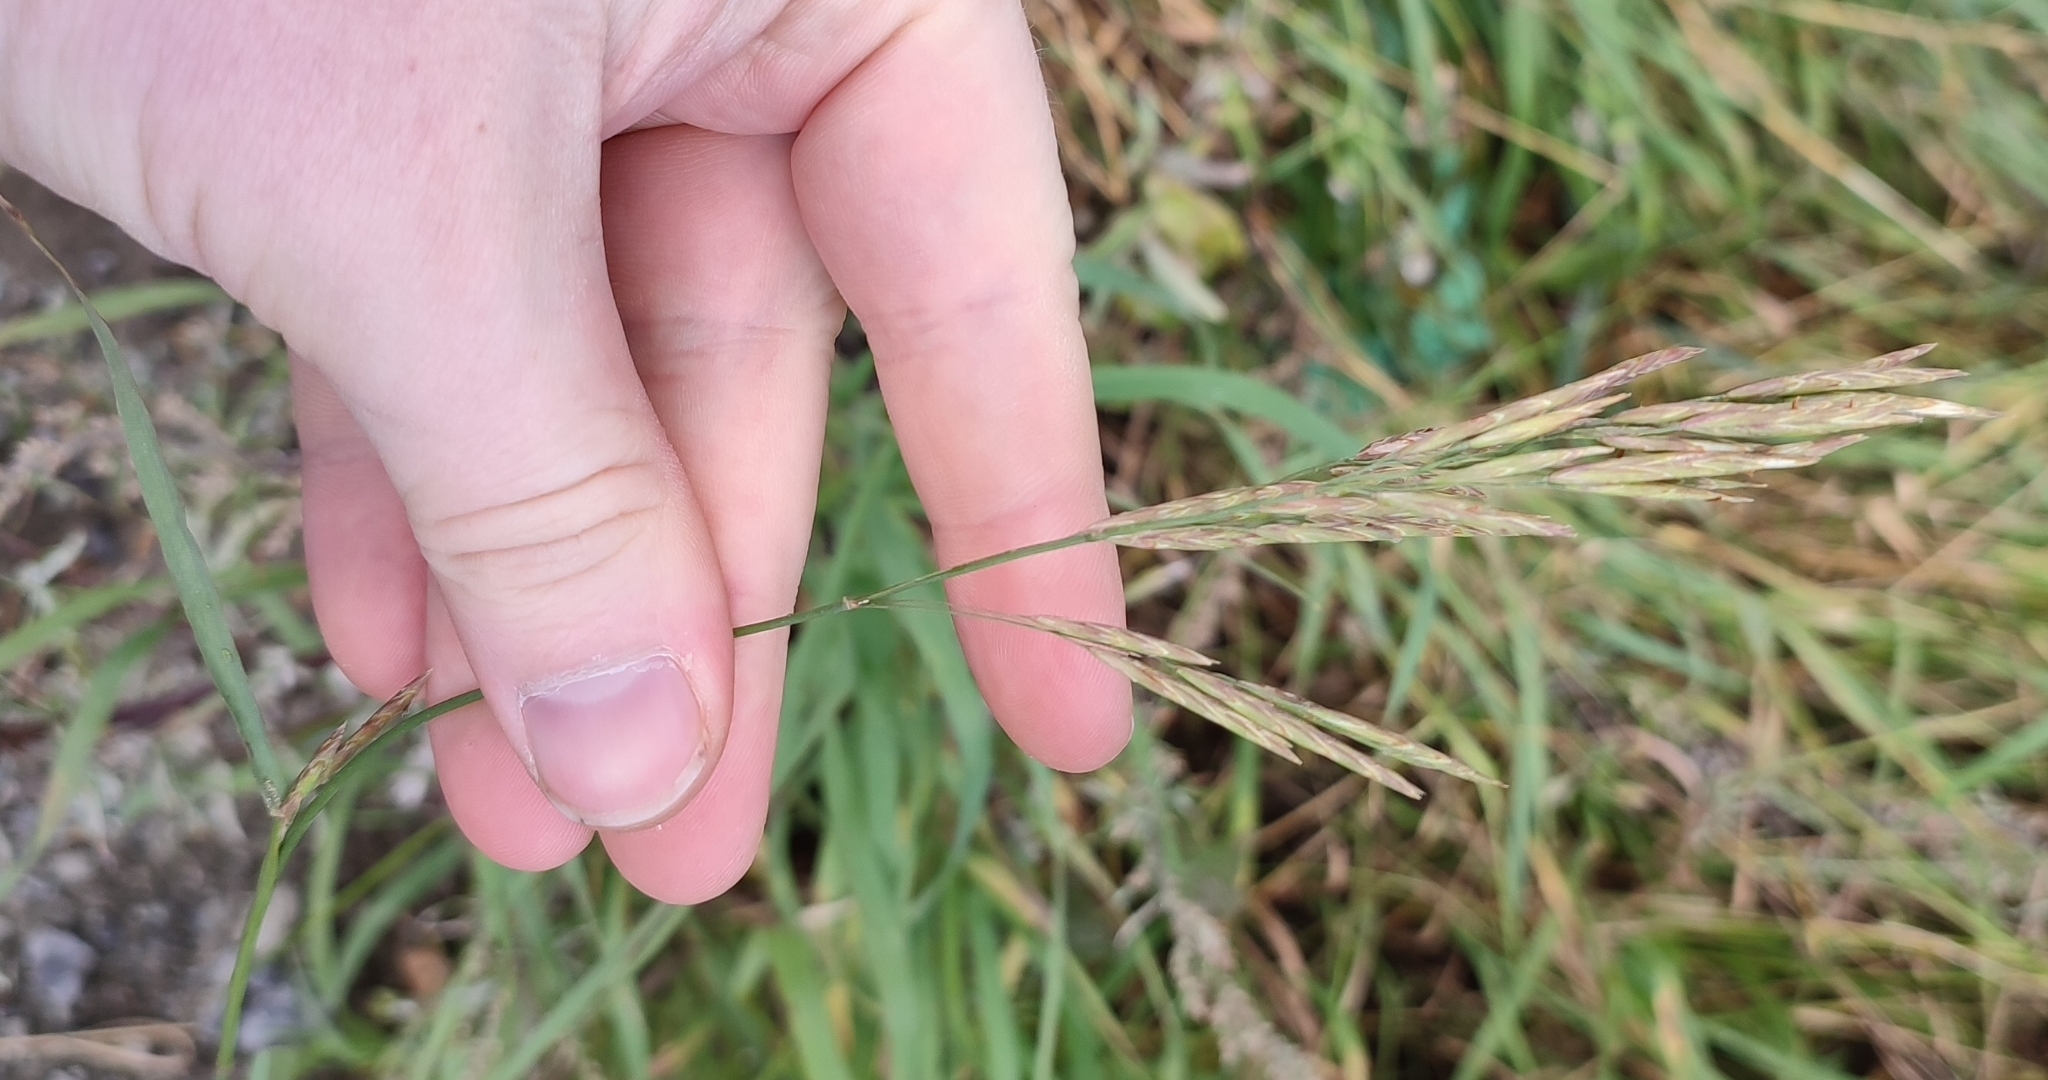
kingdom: Plantae
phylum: Tracheophyta
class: Liliopsida
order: Poales
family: Poaceae
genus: Bromus
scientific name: Bromus inermis
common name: Smooth brome
